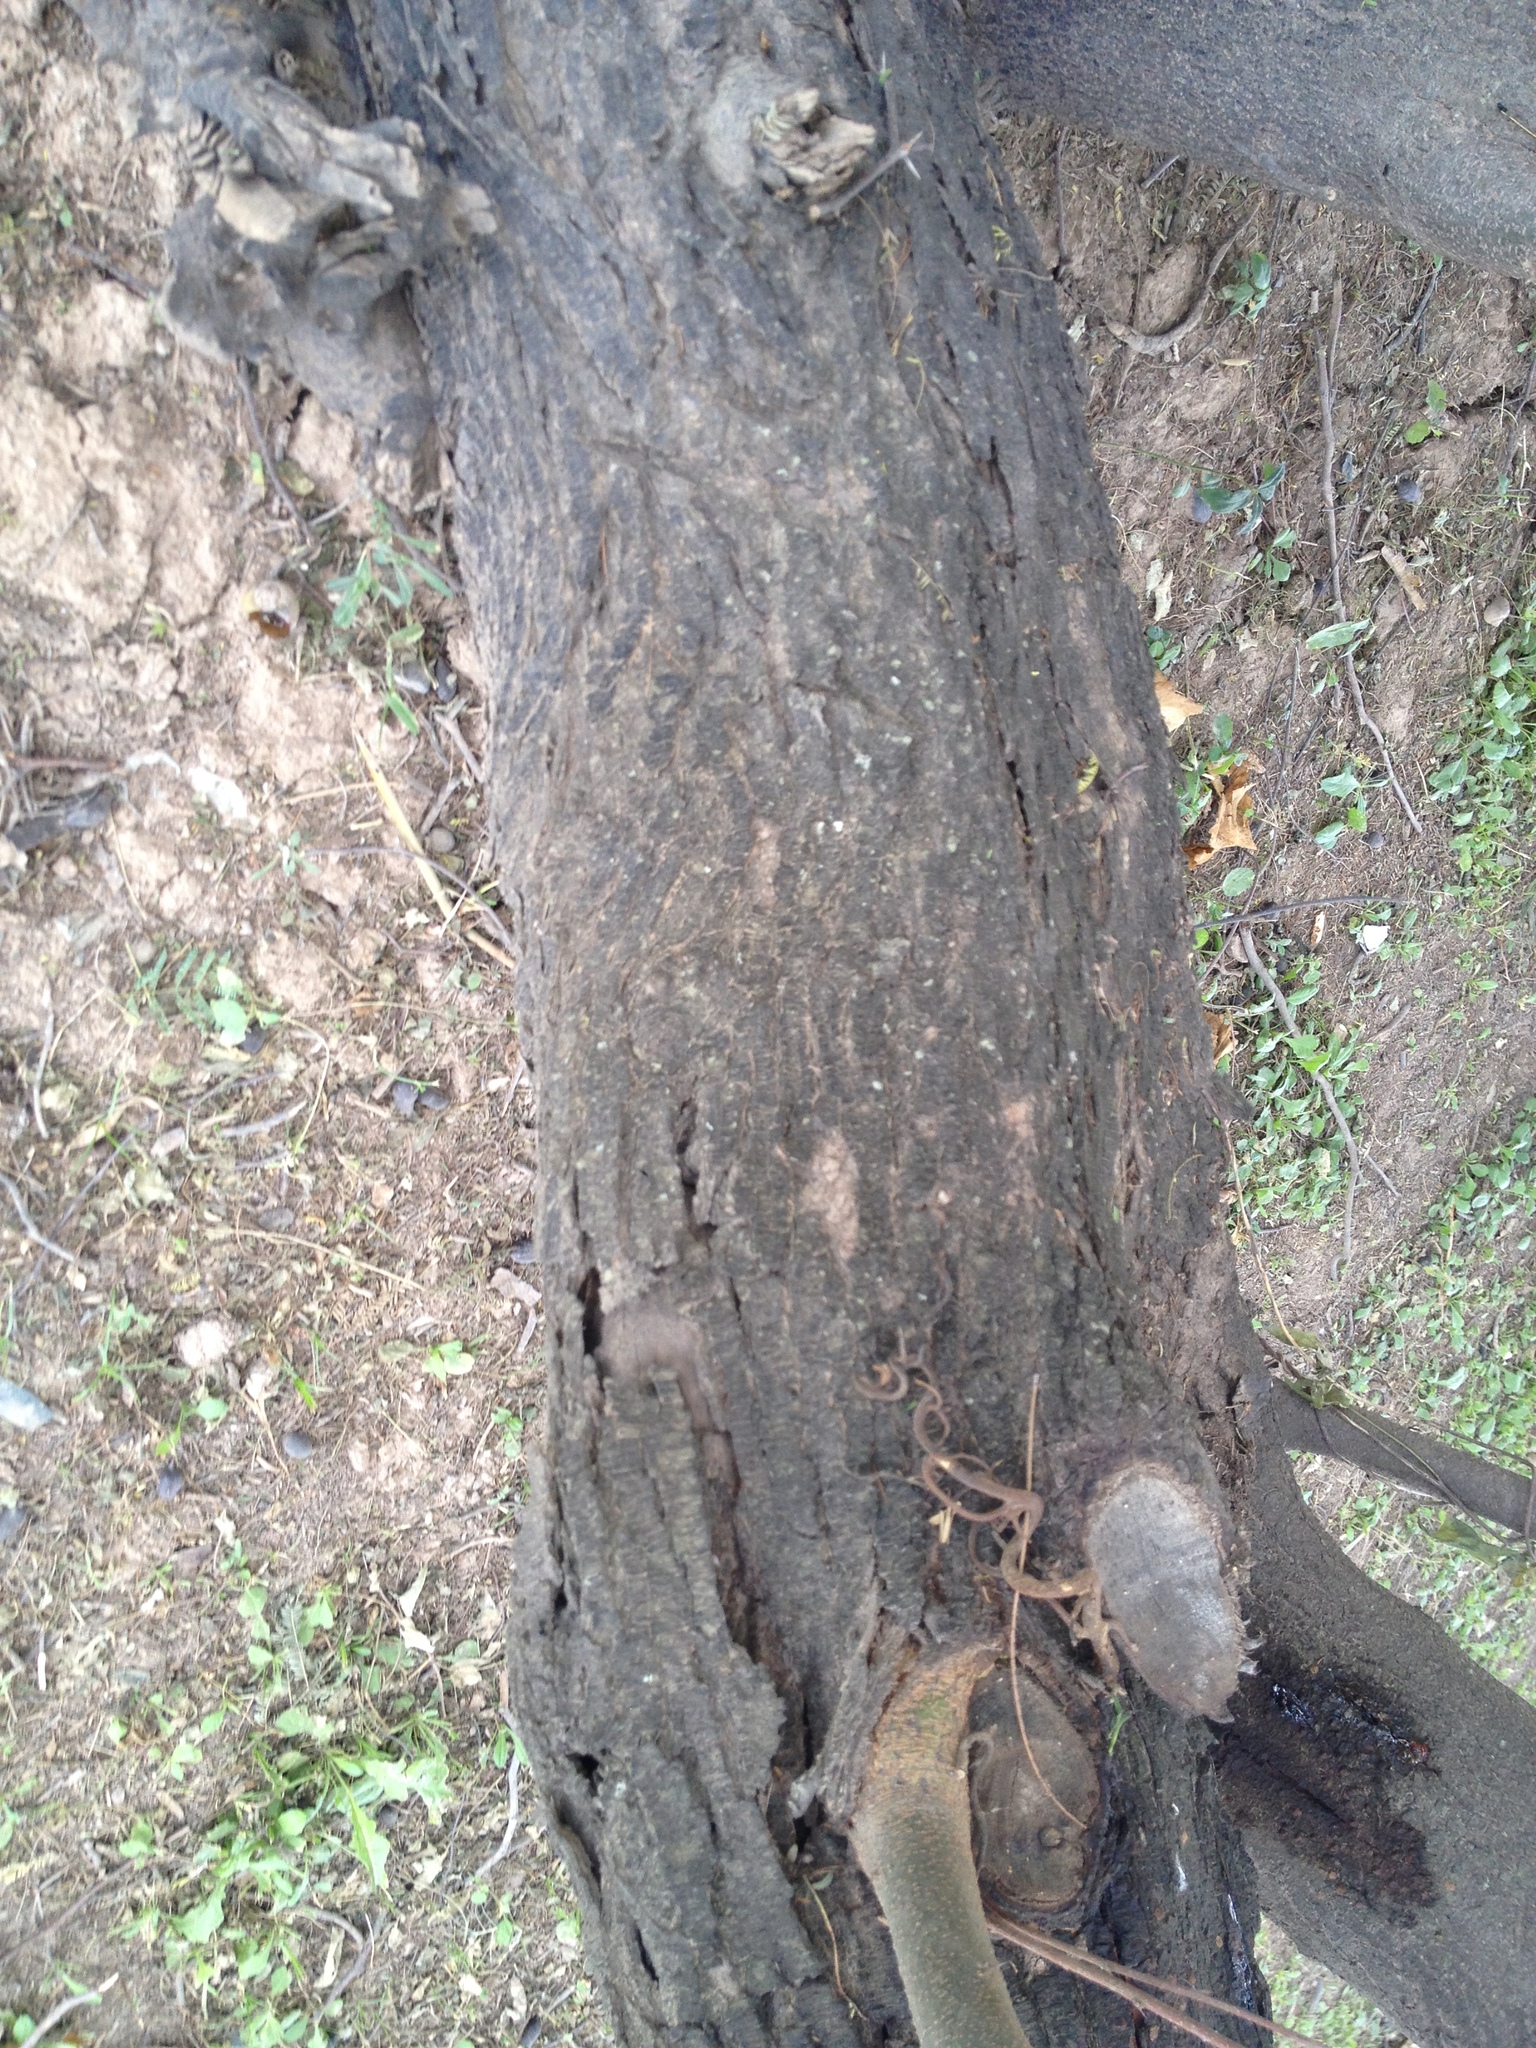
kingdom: Plantae
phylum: Tracheophyta
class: Magnoliopsida
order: Fabales
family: Fabaceae
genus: Vachellia
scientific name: Vachellia caven
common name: Roman cassie
